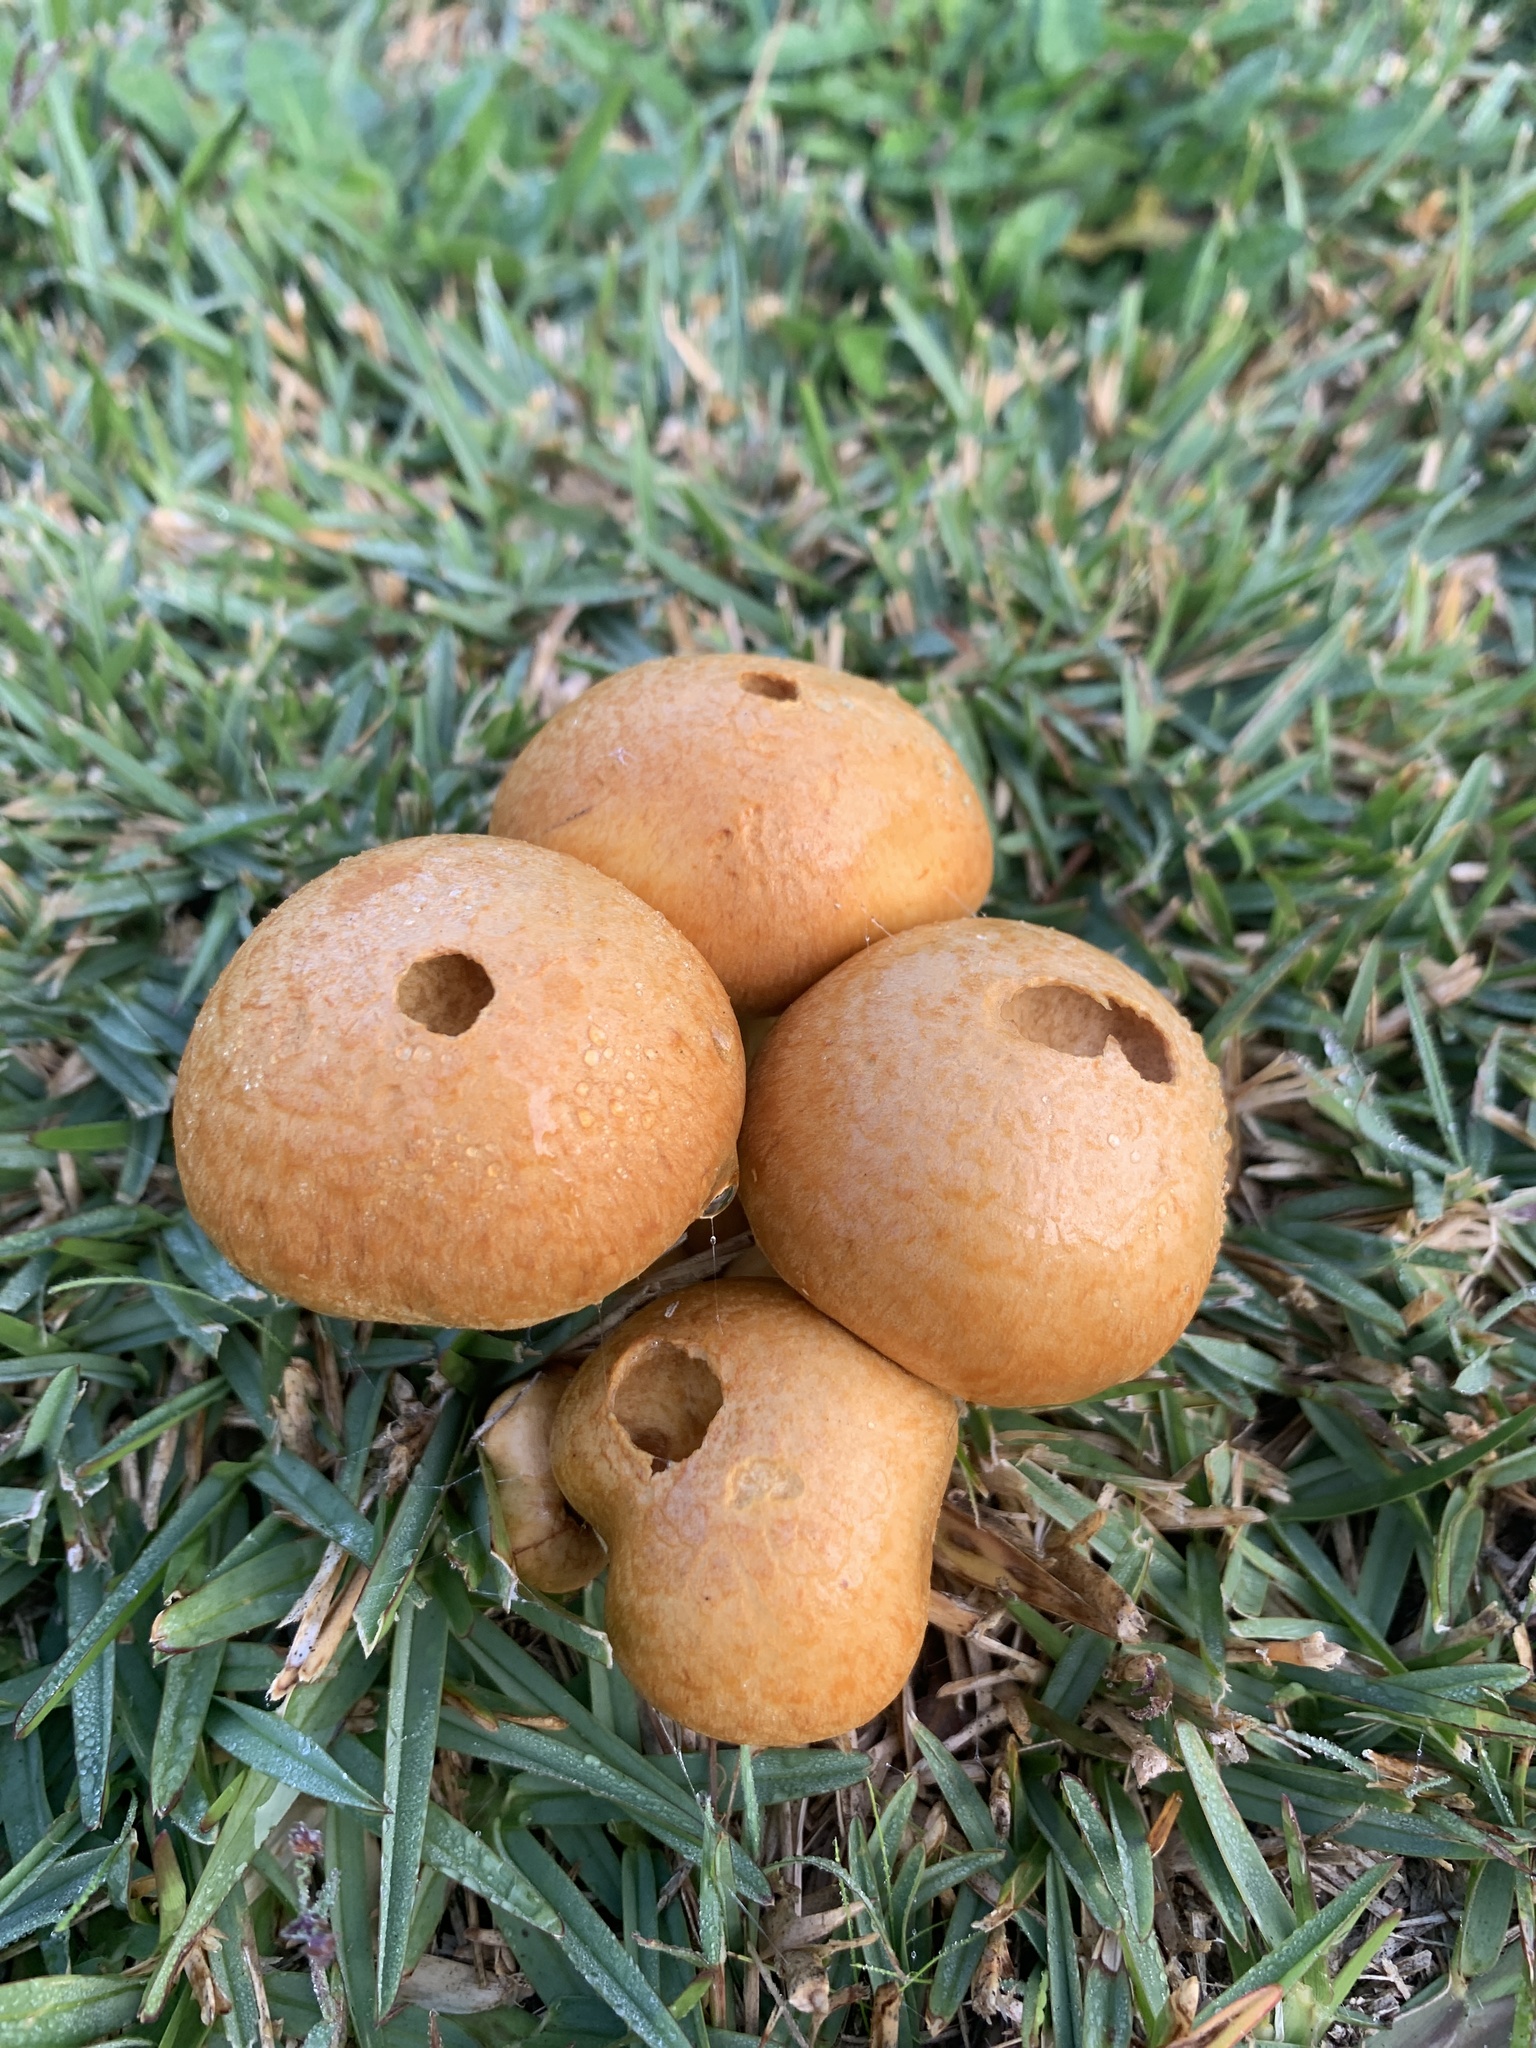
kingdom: Fungi
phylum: Basidiomycota
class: Agaricomycetes
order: Agaricales
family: Hymenogastraceae
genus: Gymnopilus
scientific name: Gymnopilus junonius
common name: Spectacular rustgill
